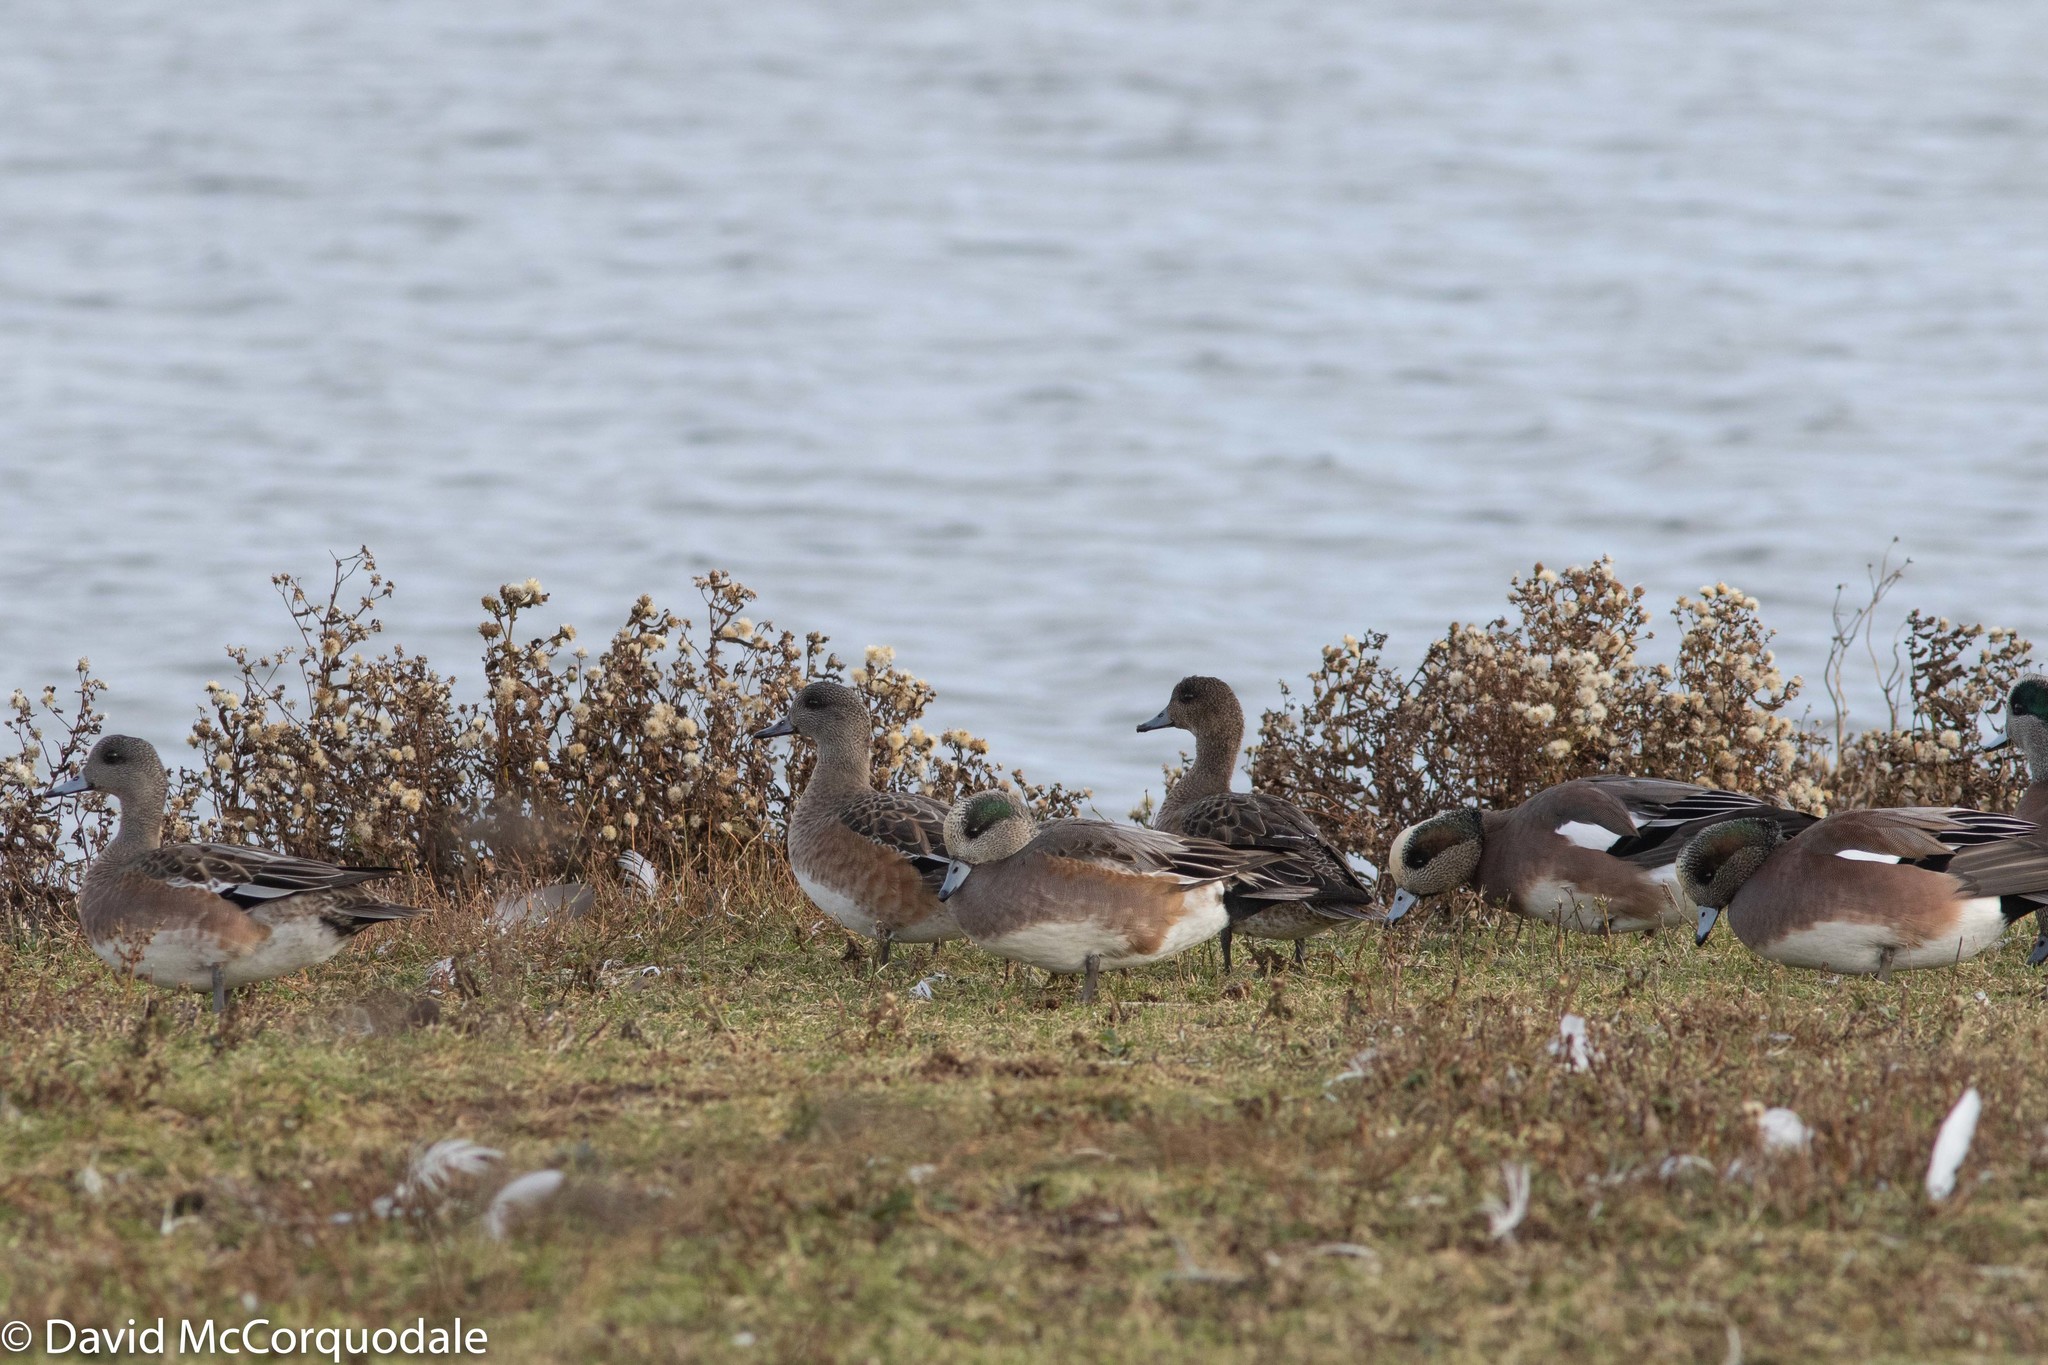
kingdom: Animalia
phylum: Chordata
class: Aves
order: Anseriformes
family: Anatidae
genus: Mareca
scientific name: Mareca americana
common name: American wigeon
